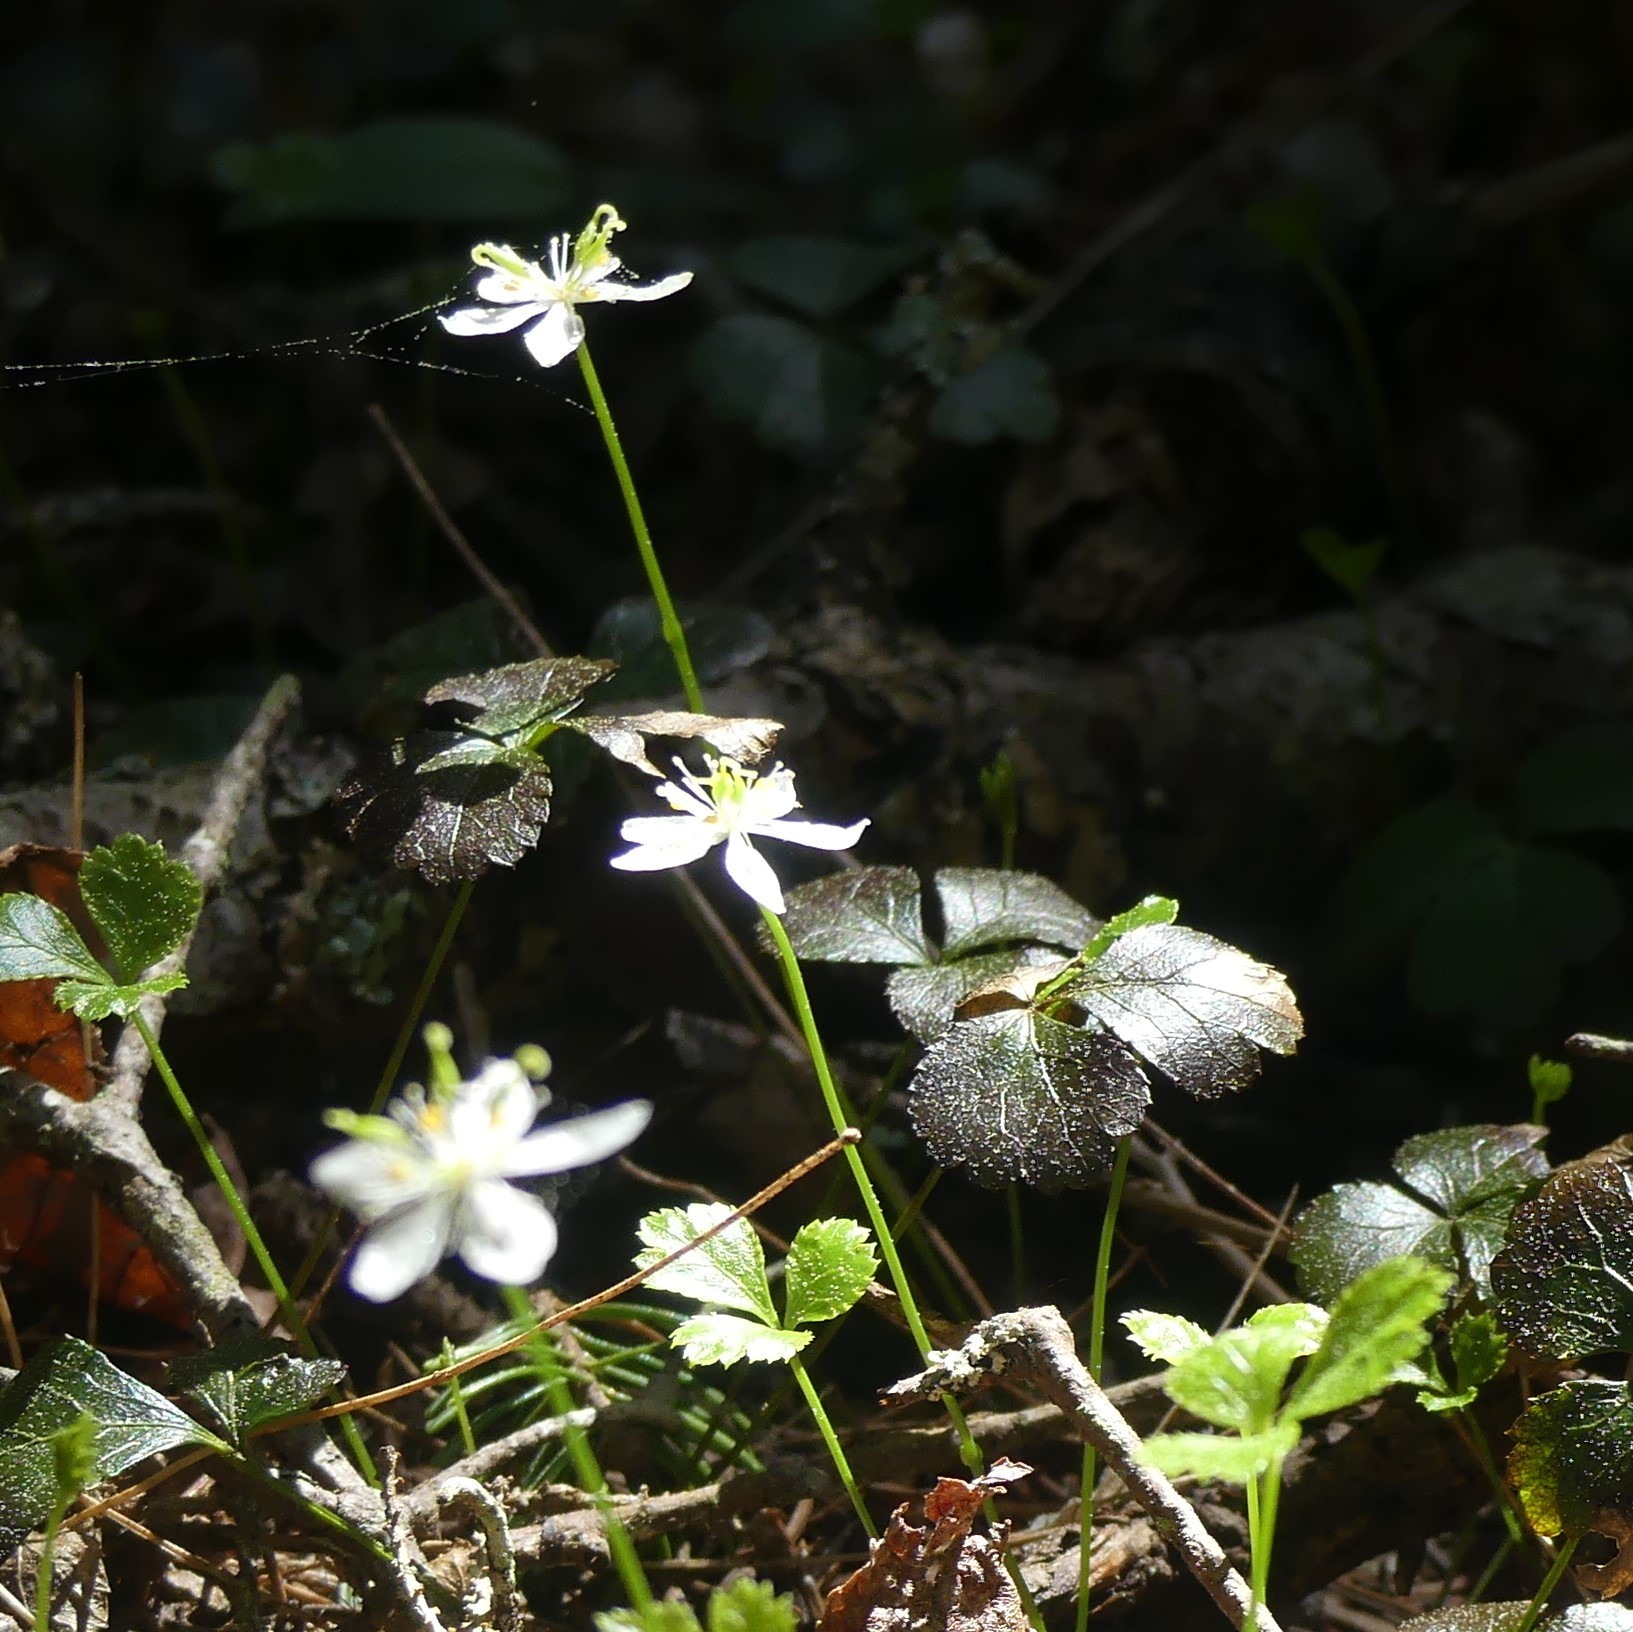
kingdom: Plantae
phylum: Tracheophyta
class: Magnoliopsida
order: Ranunculales
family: Ranunculaceae
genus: Coptis
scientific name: Coptis trifolia
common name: Canker-root
